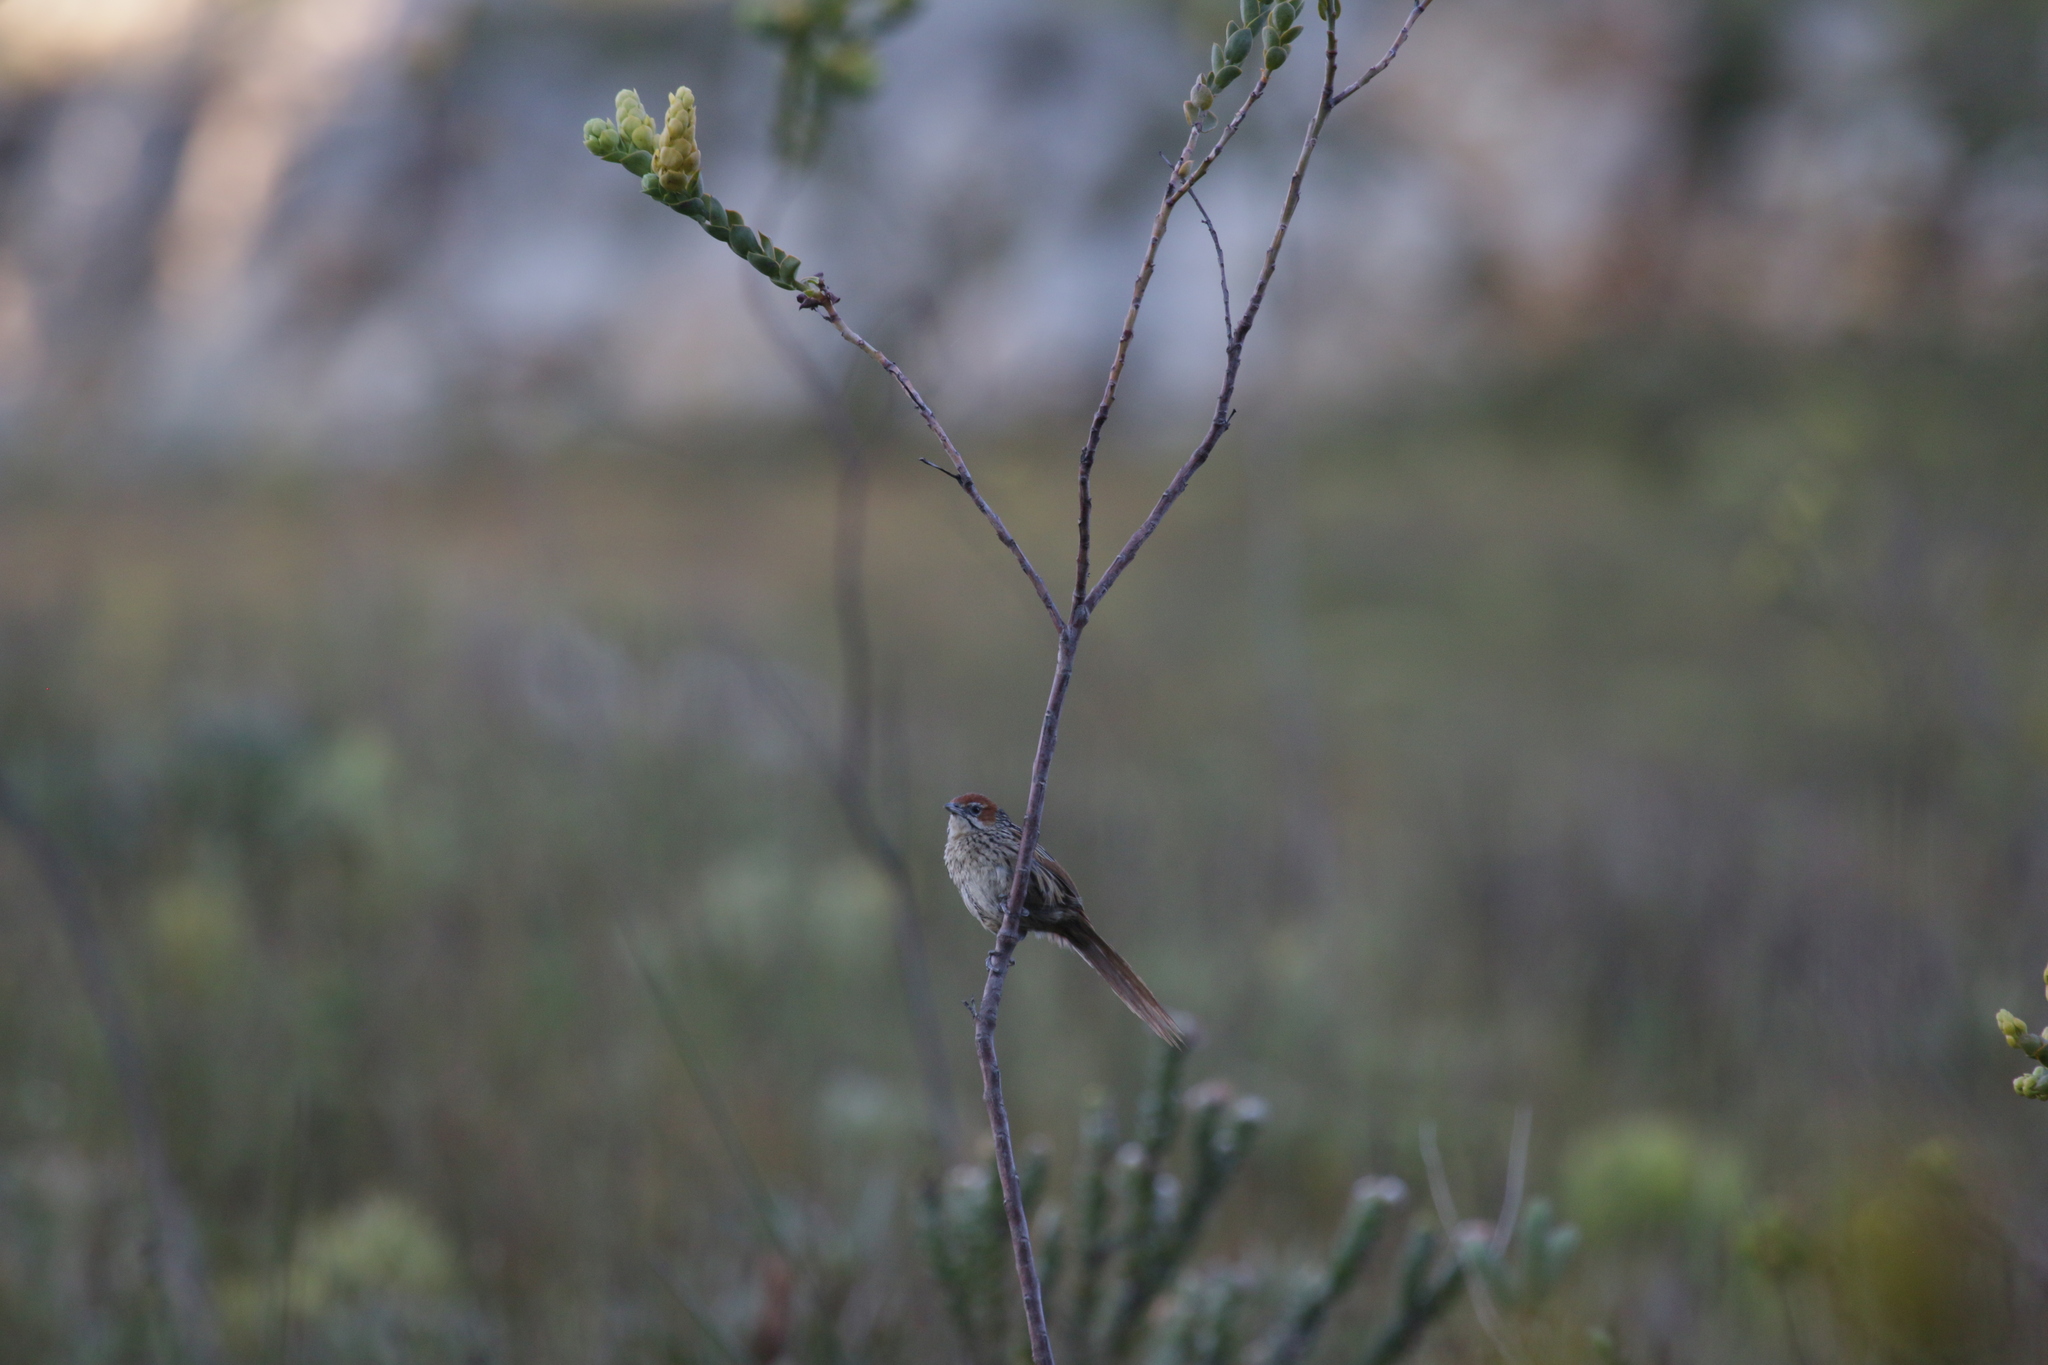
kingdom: Animalia
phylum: Chordata
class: Aves
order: Passeriformes
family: Macrosphenidae
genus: Sphenoeacus
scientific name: Sphenoeacus afer
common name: Cape grassbird
